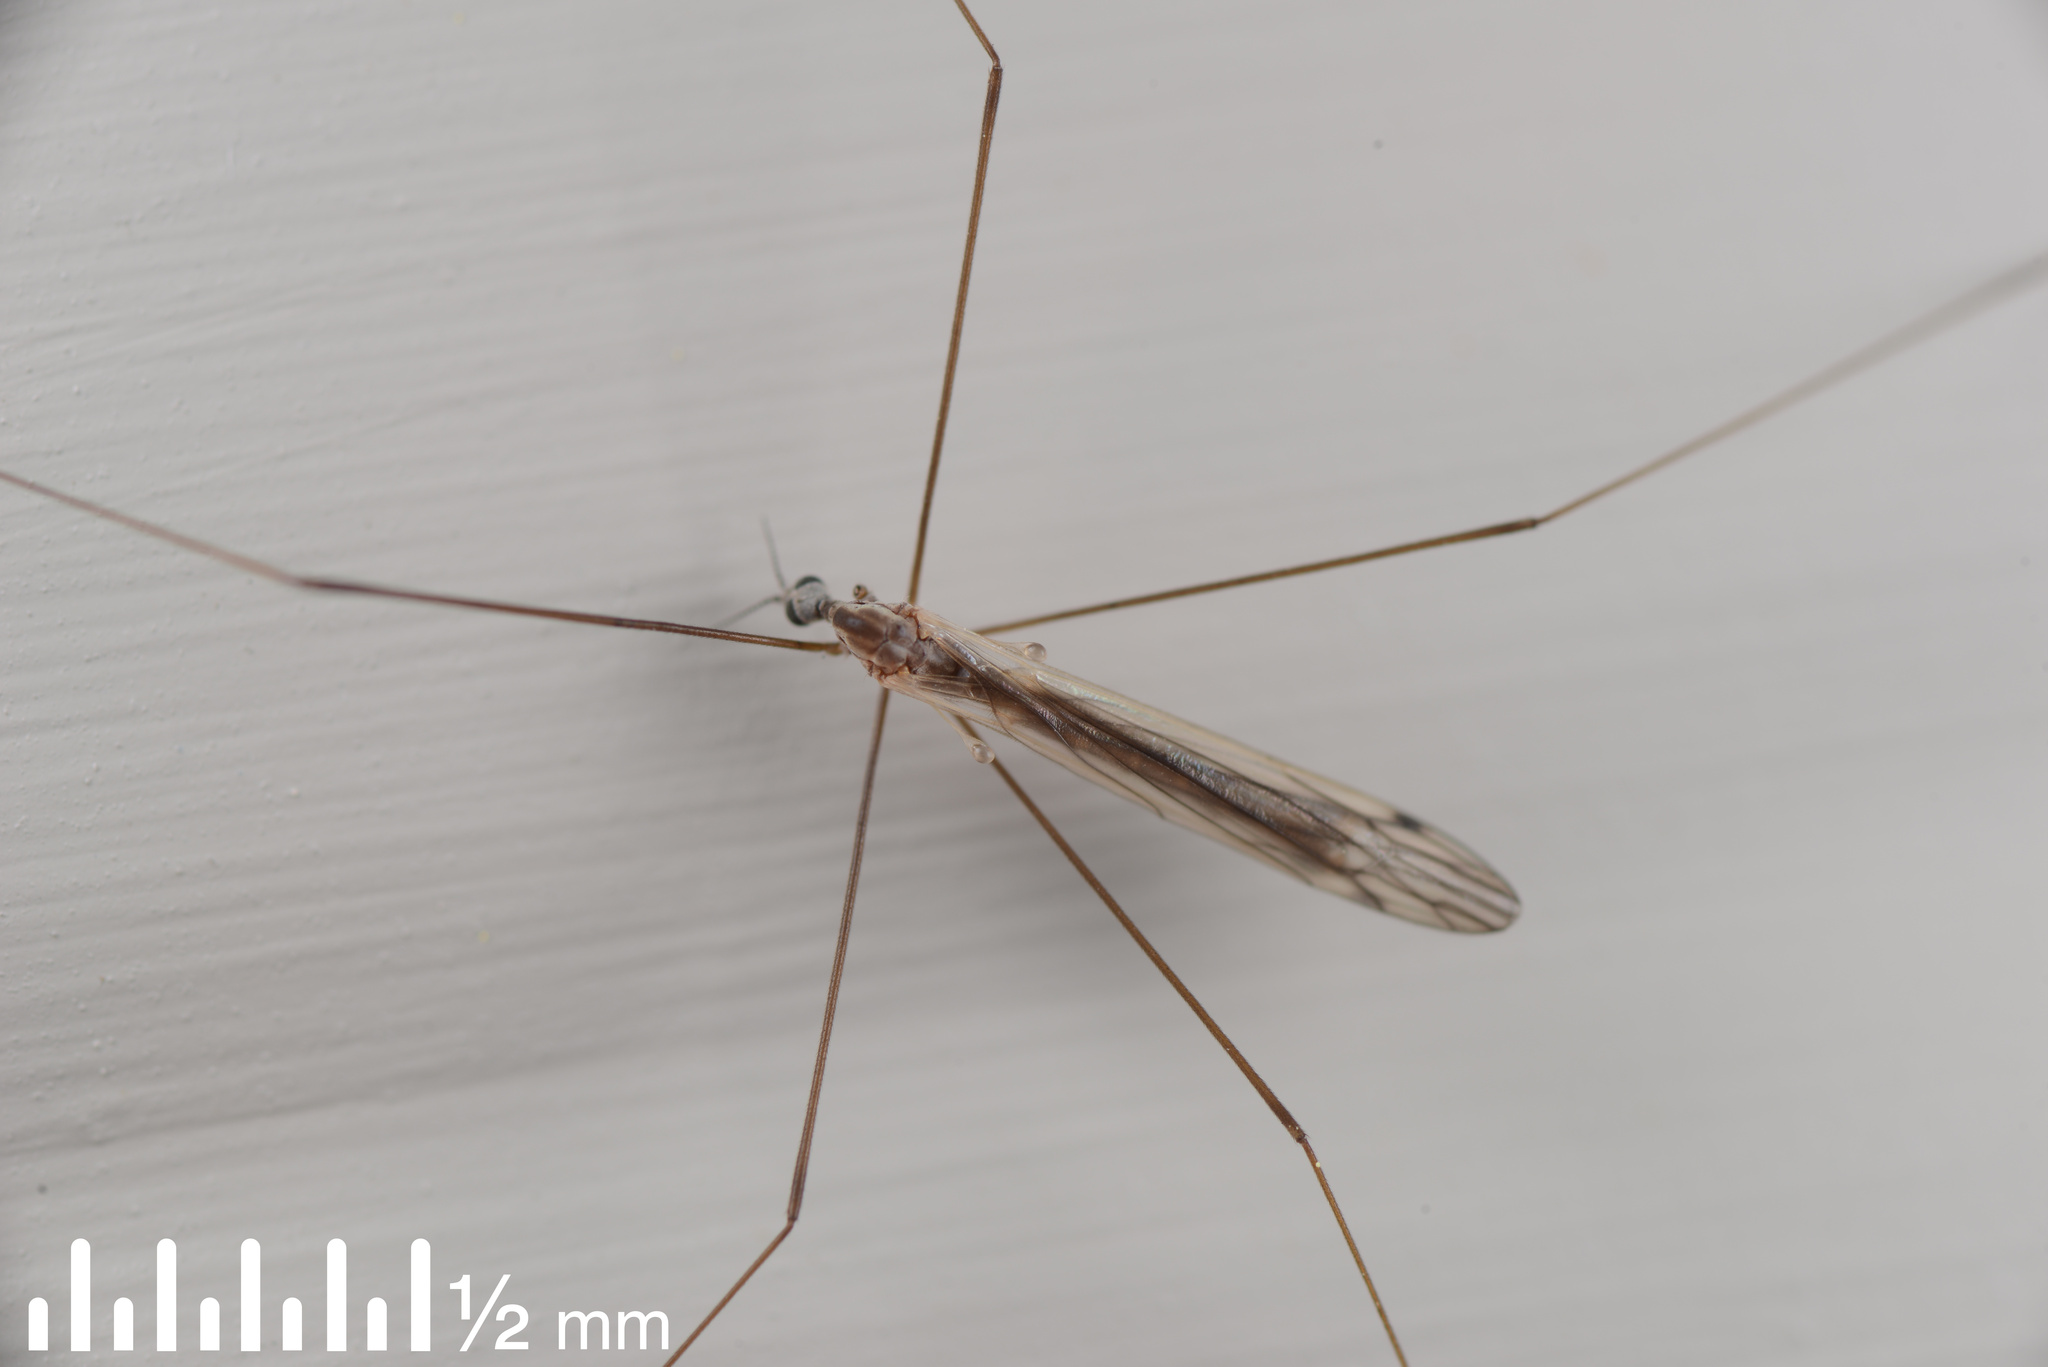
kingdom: Animalia
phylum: Arthropoda
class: Insecta
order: Diptera
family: Limoniidae
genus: Dicranomyia
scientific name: Dicranomyia aegrotans
